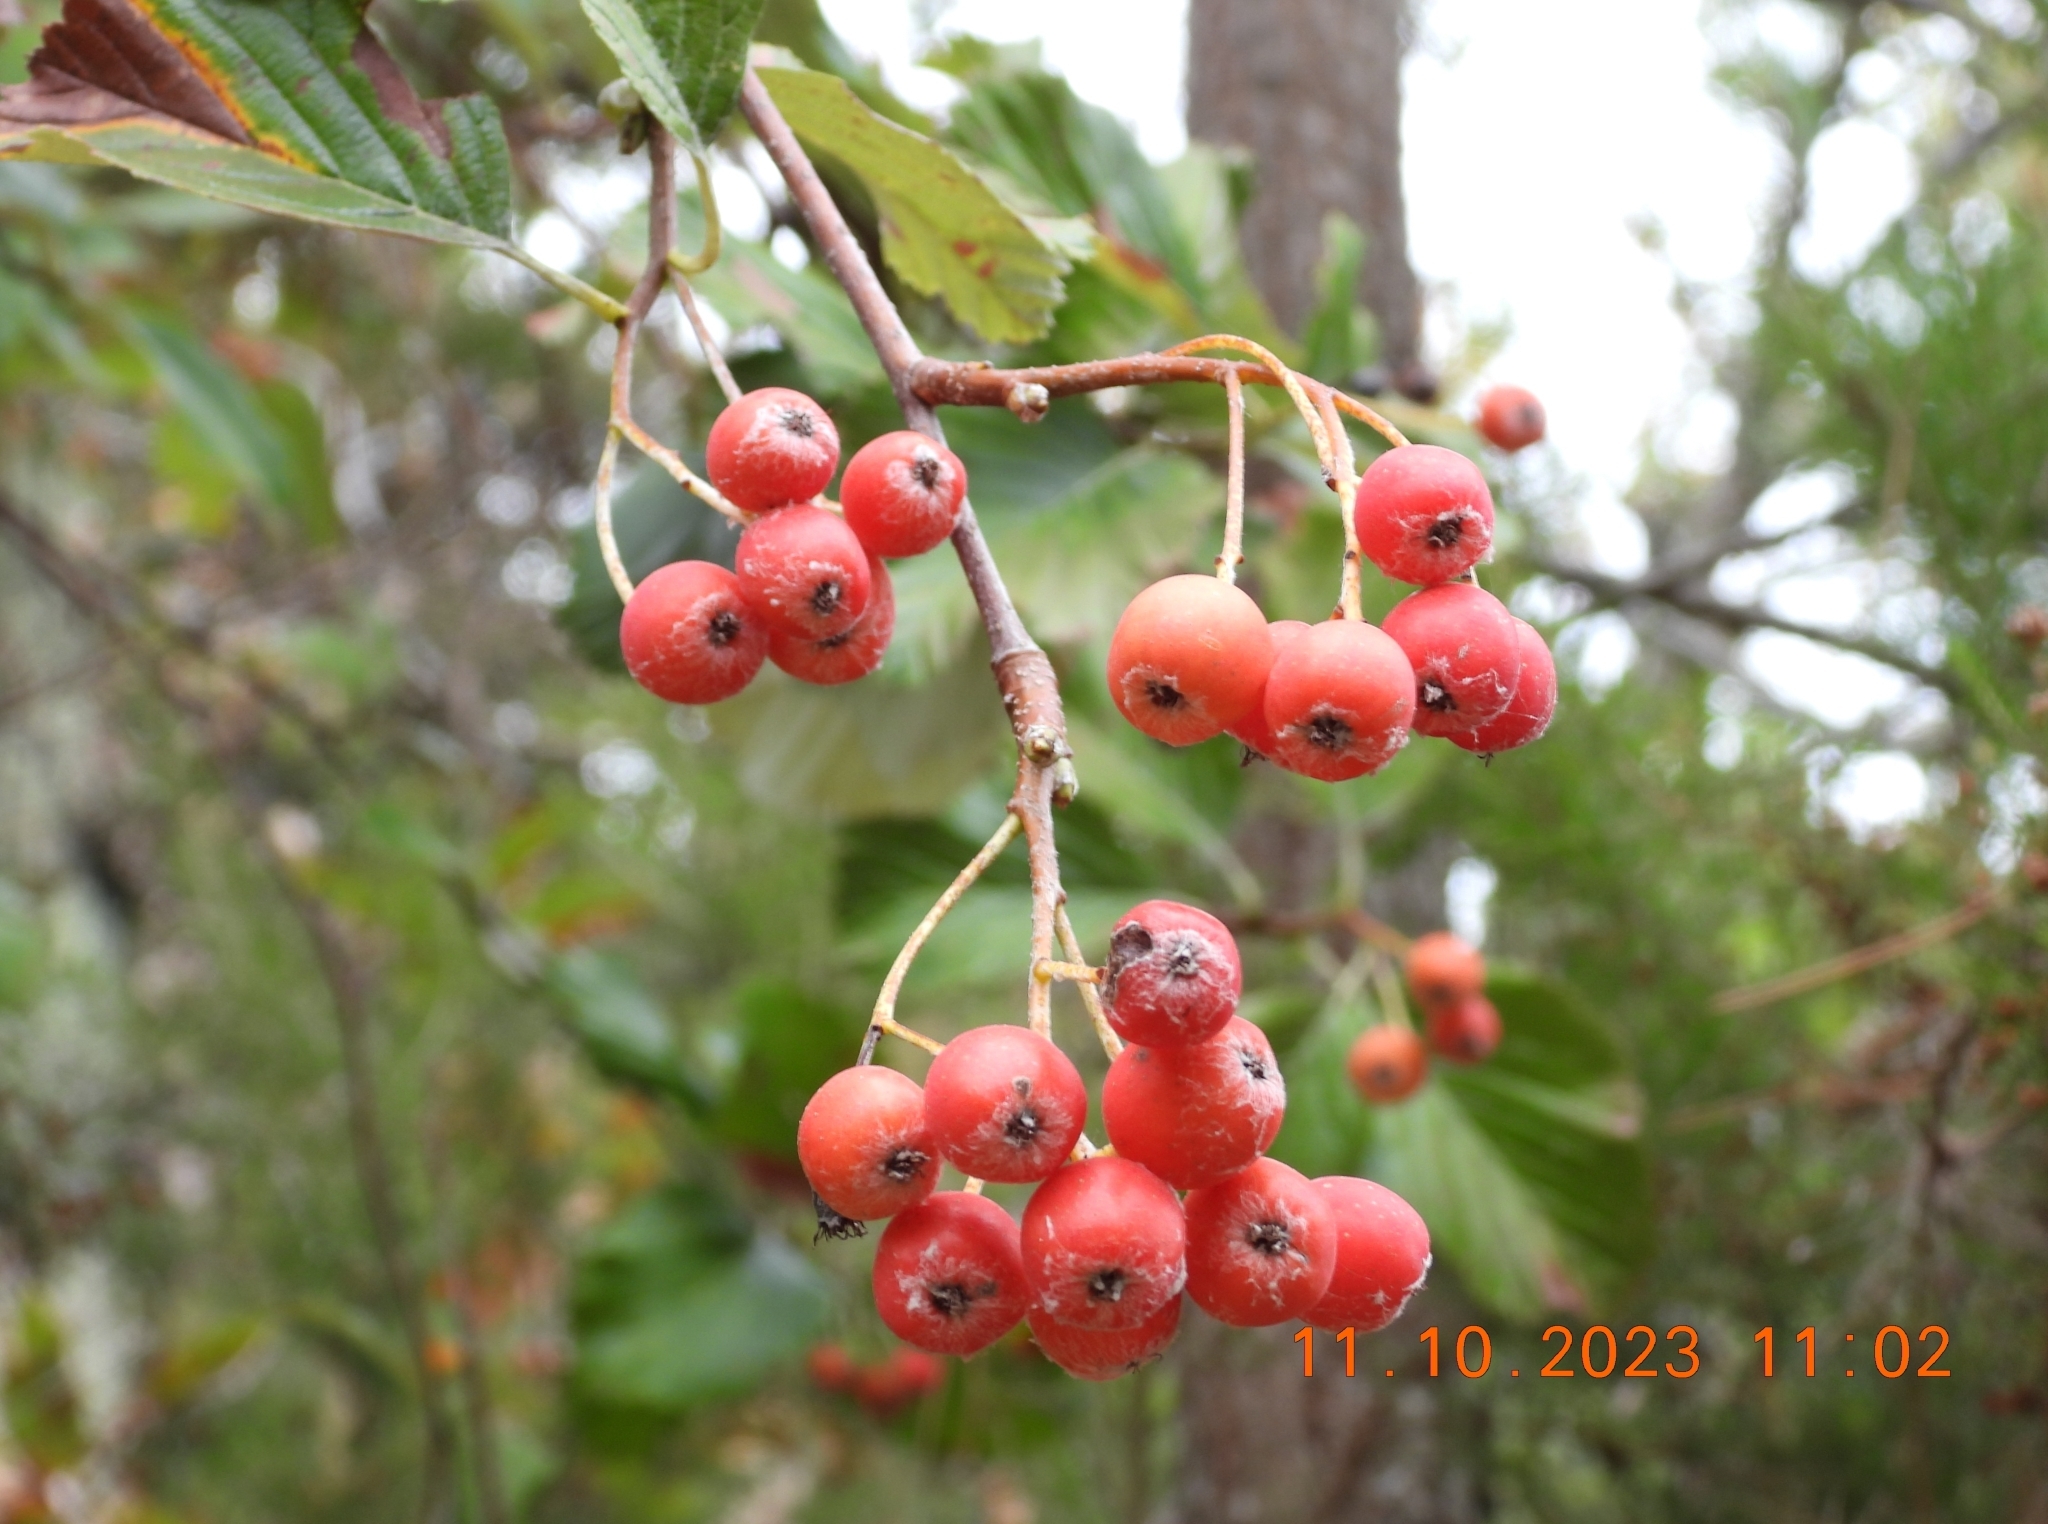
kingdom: Plantae
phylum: Tracheophyta
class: Magnoliopsida
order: Rosales
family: Rosaceae
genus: Aria
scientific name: Aria edulis
